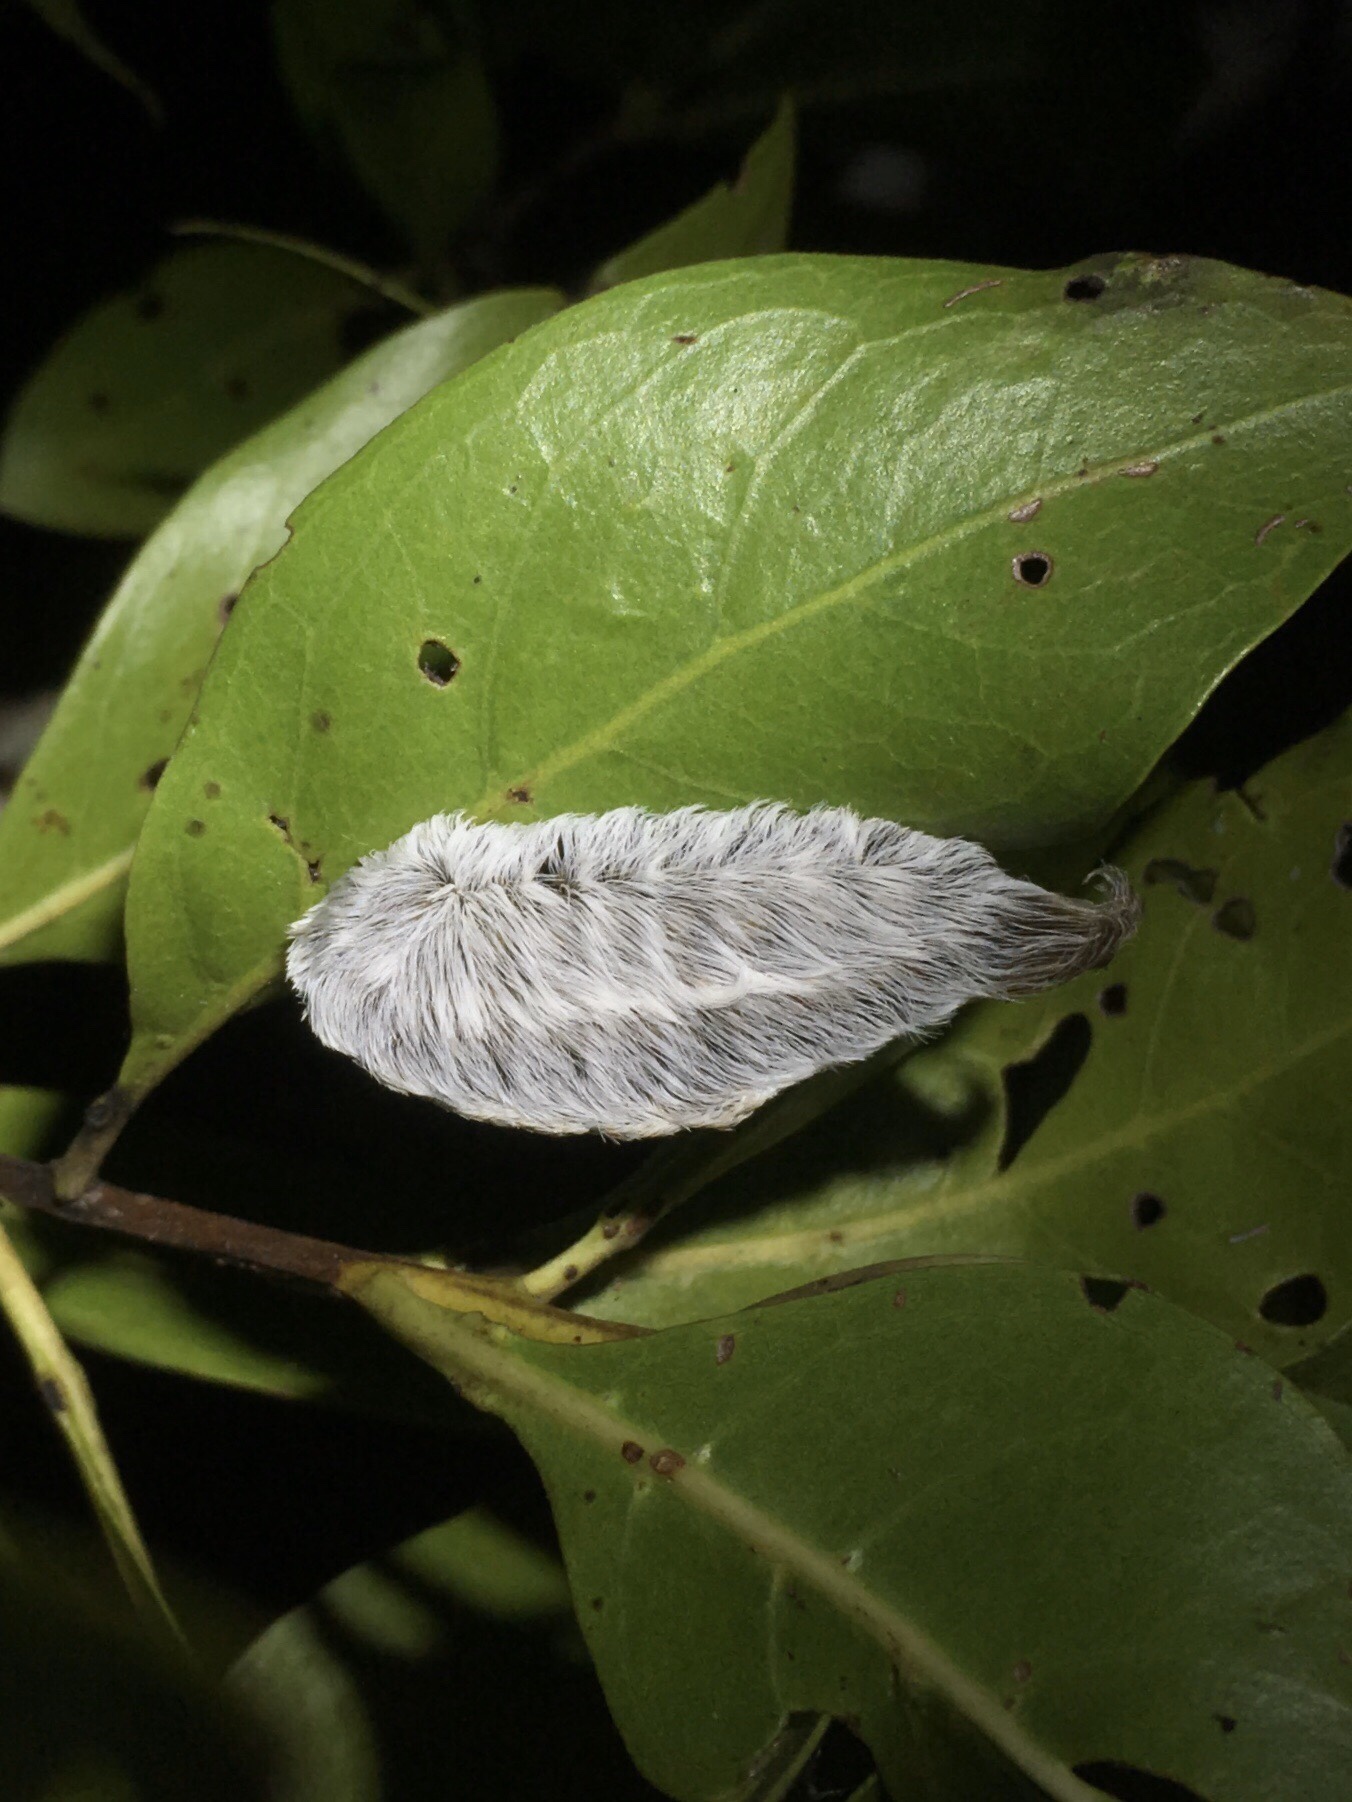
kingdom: Animalia
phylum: Arthropoda
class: Insecta
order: Lepidoptera
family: Megalopygidae
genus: Megalopyge
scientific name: Megalopyge opercularis
